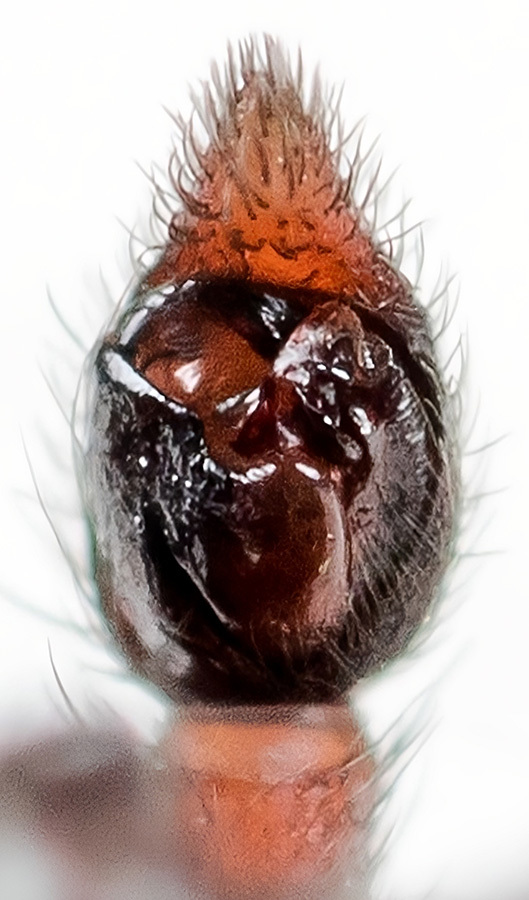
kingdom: Animalia
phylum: Arthropoda
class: Arachnida
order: Araneae
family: Lycosidae
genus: Xerolycosa
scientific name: Xerolycosa miniata
